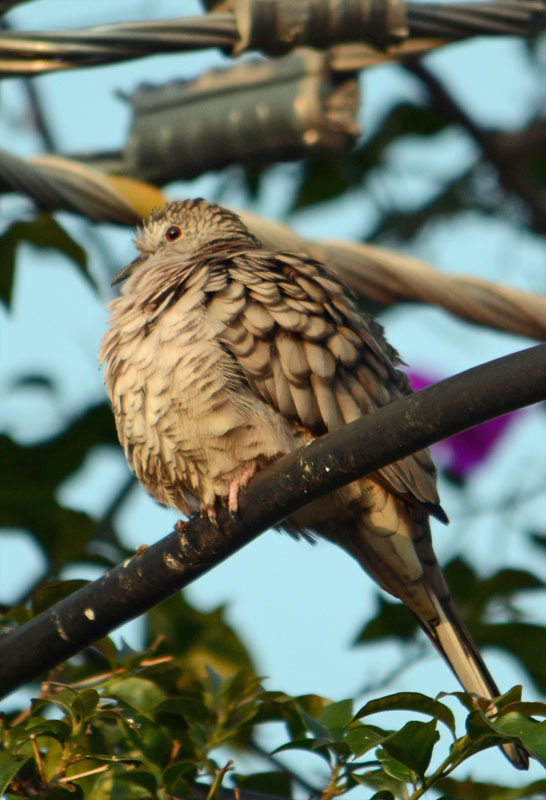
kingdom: Animalia
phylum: Chordata
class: Aves
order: Columbiformes
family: Columbidae
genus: Columbina
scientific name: Columbina inca
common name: Inca dove
